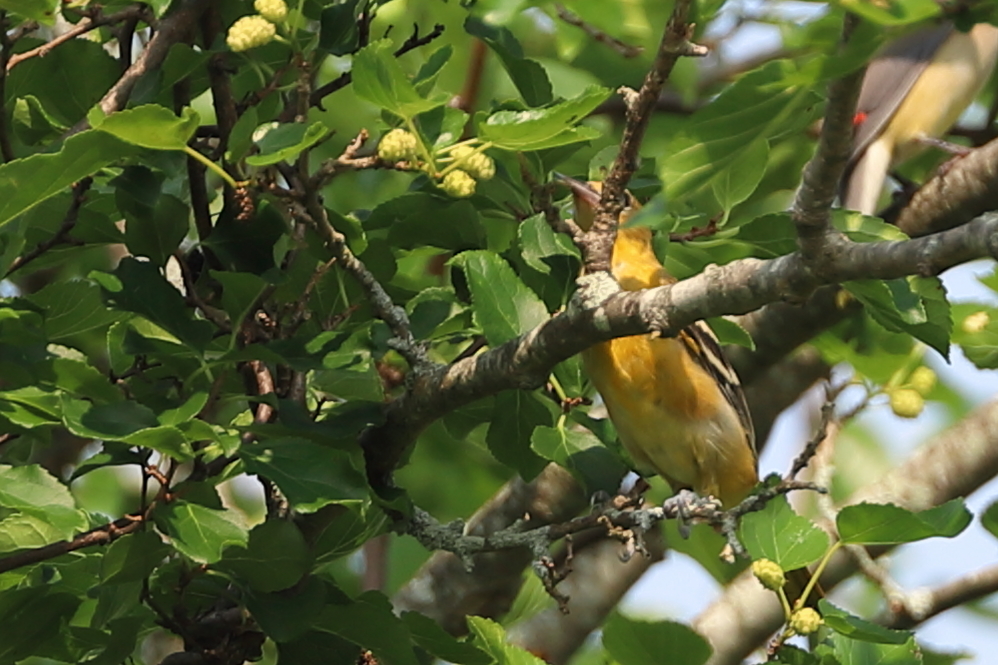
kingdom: Animalia
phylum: Chordata
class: Aves
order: Passeriformes
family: Icteridae
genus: Icterus
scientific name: Icterus galbula
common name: Baltimore oriole
